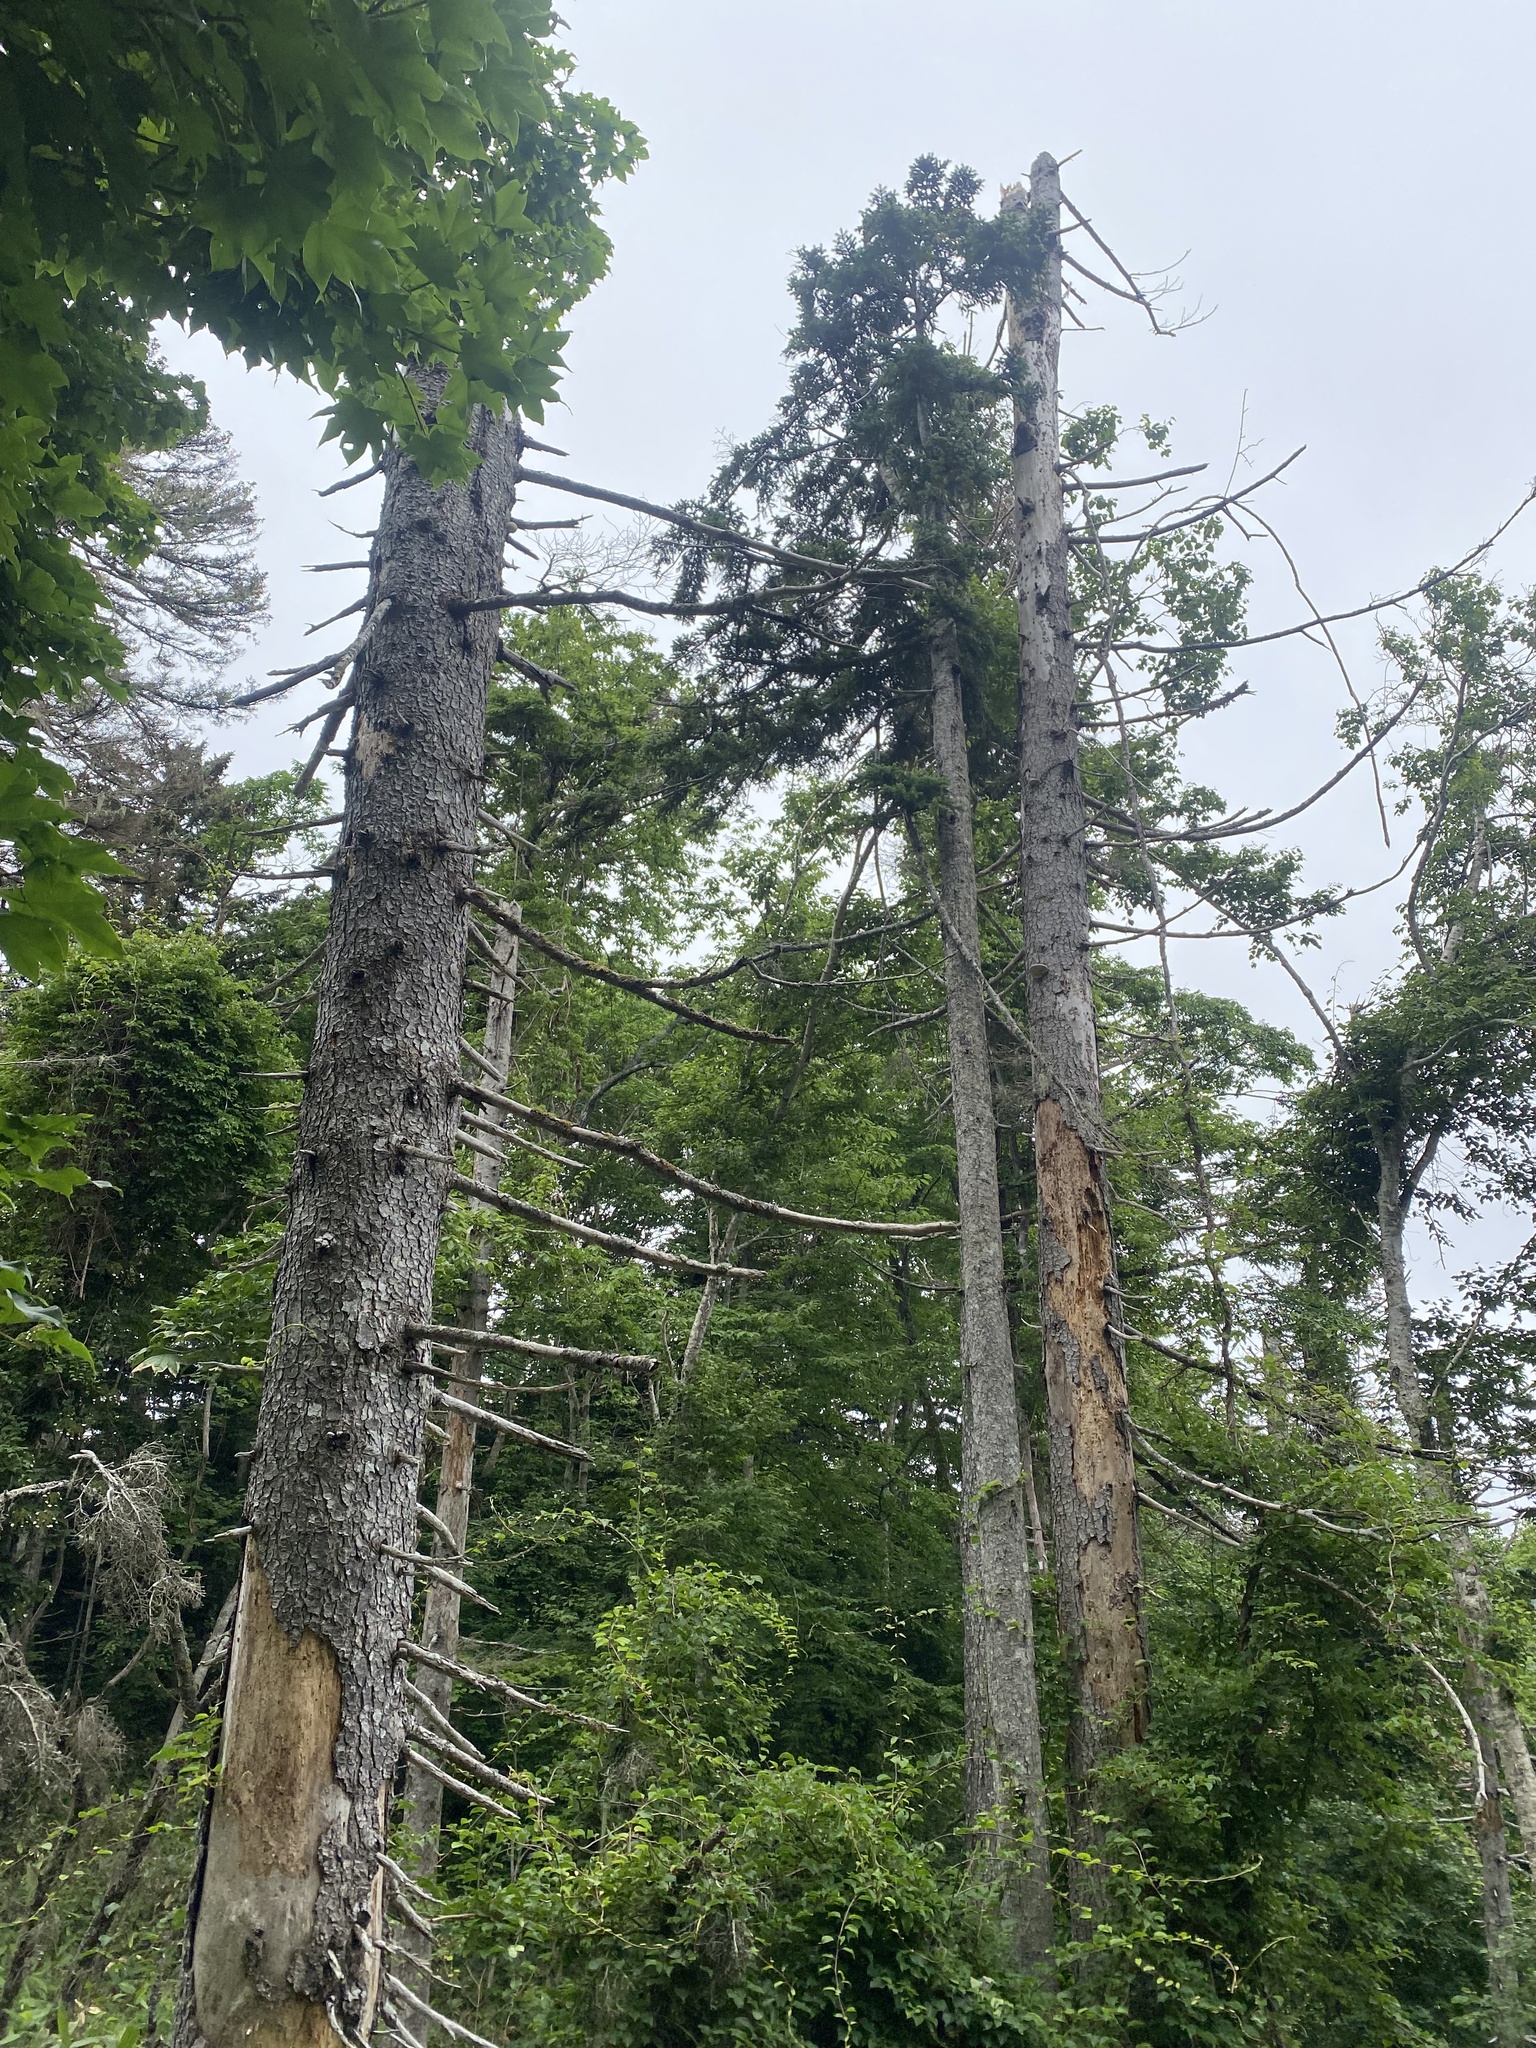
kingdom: Plantae
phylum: Tracheophyta
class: Pinopsida
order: Pinales
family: Pinaceae
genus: Abies
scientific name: Abies sachalinensis
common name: Sakhalin fir
